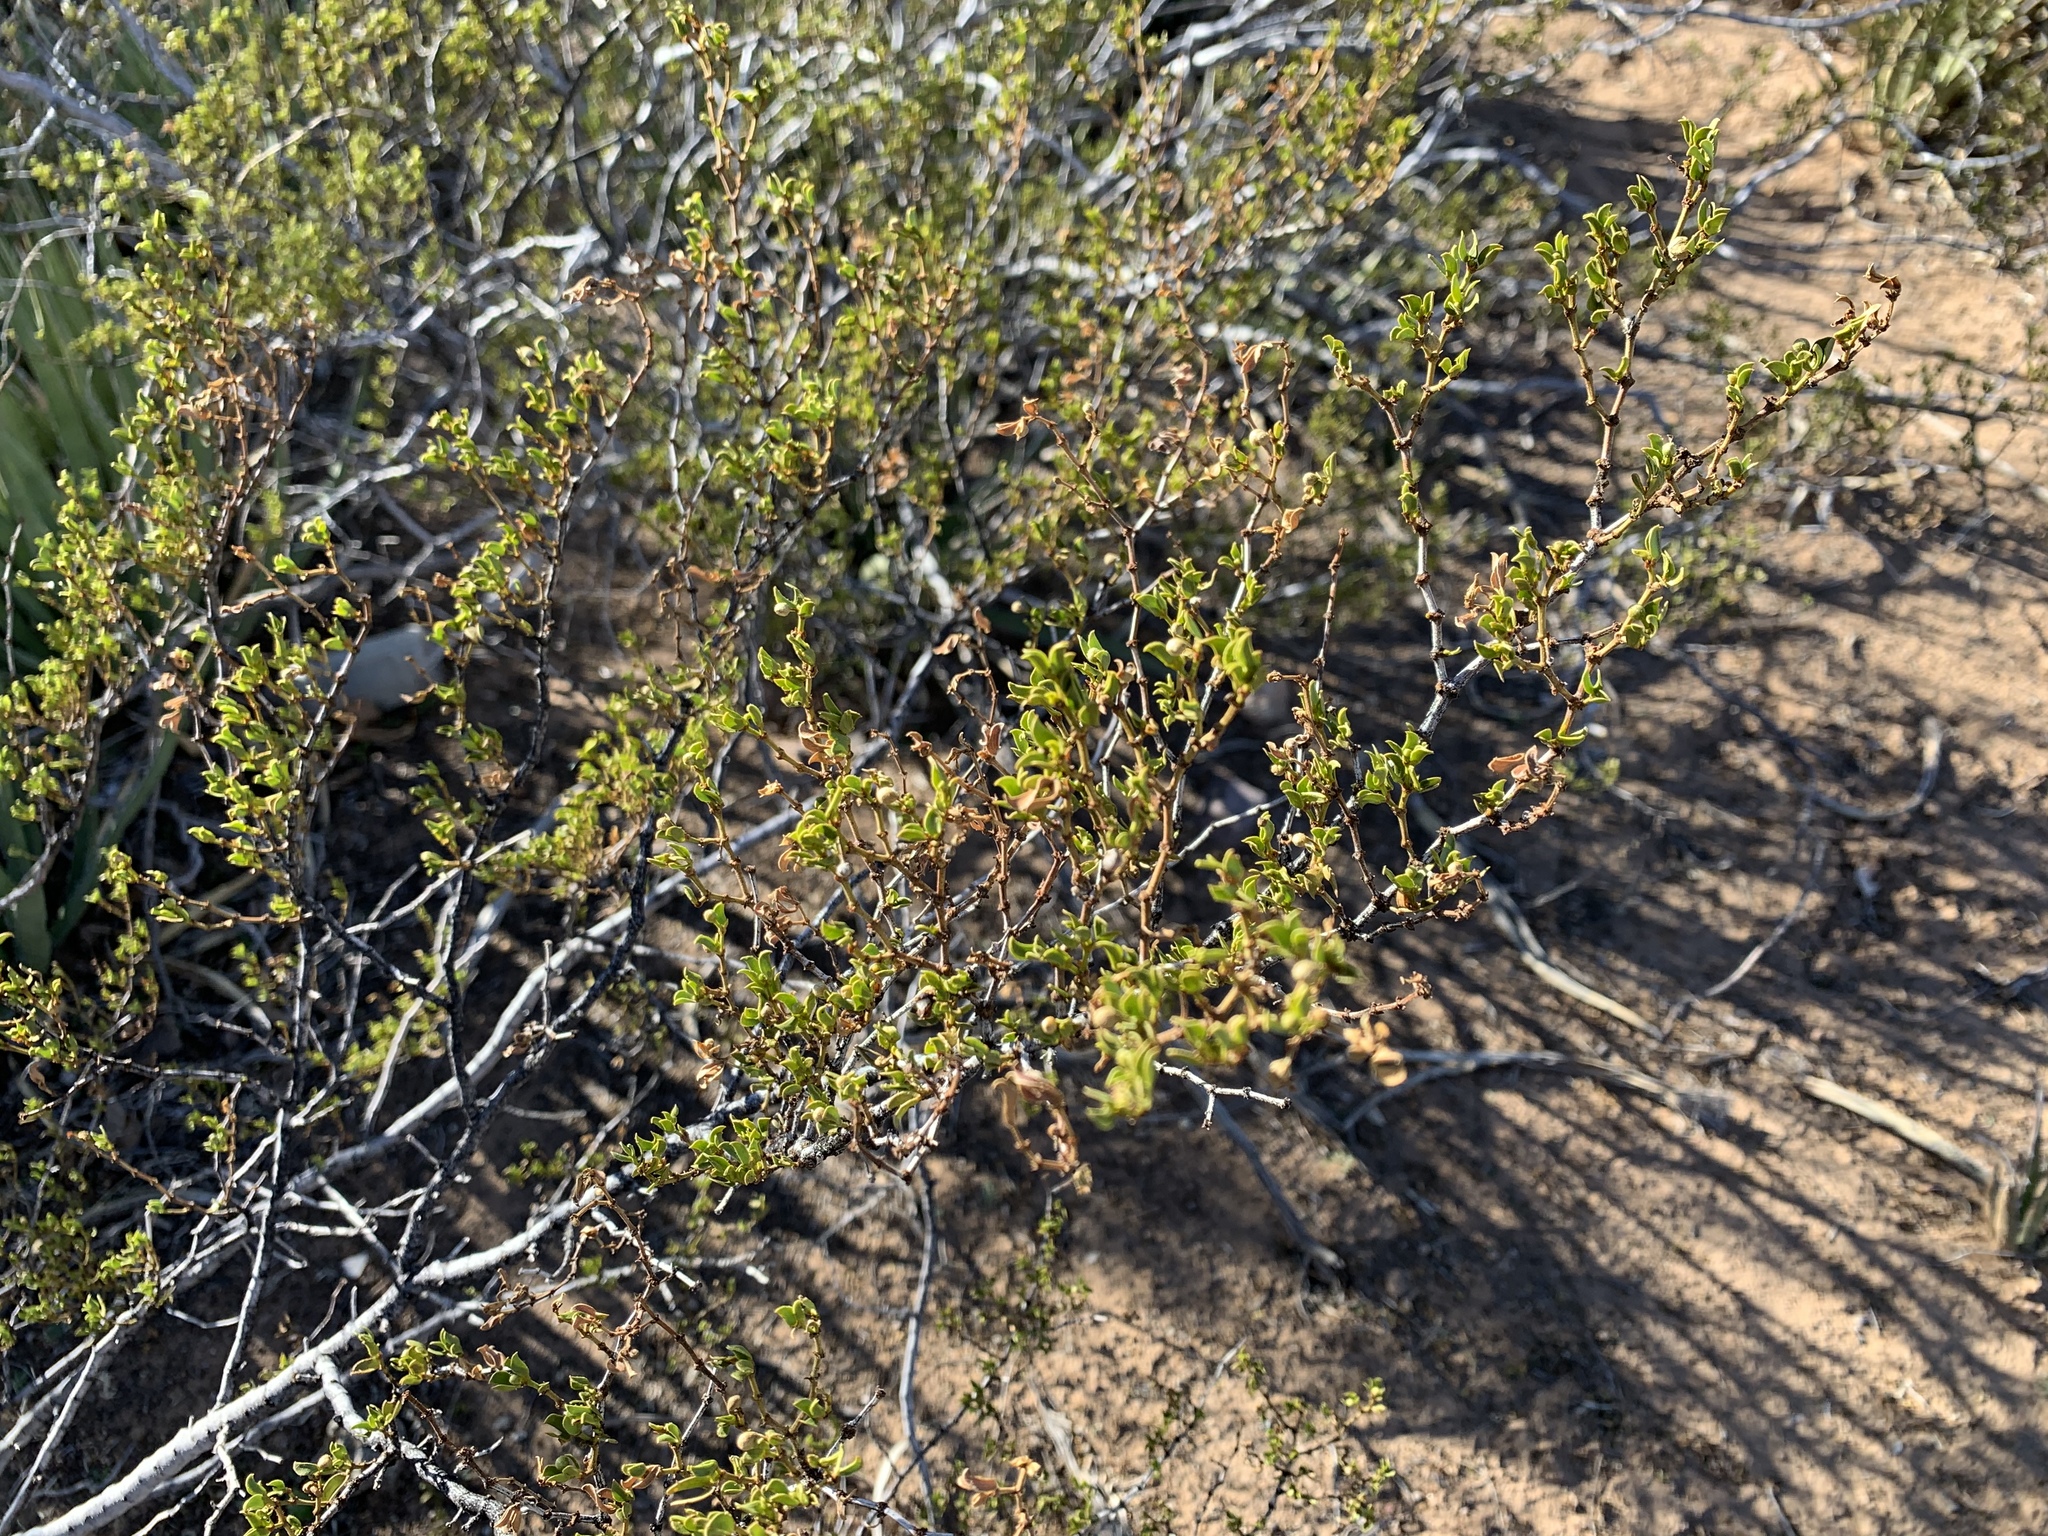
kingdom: Plantae
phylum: Tracheophyta
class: Magnoliopsida
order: Zygophyllales
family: Zygophyllaceae
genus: Larrea
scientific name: Larrea tridentata
